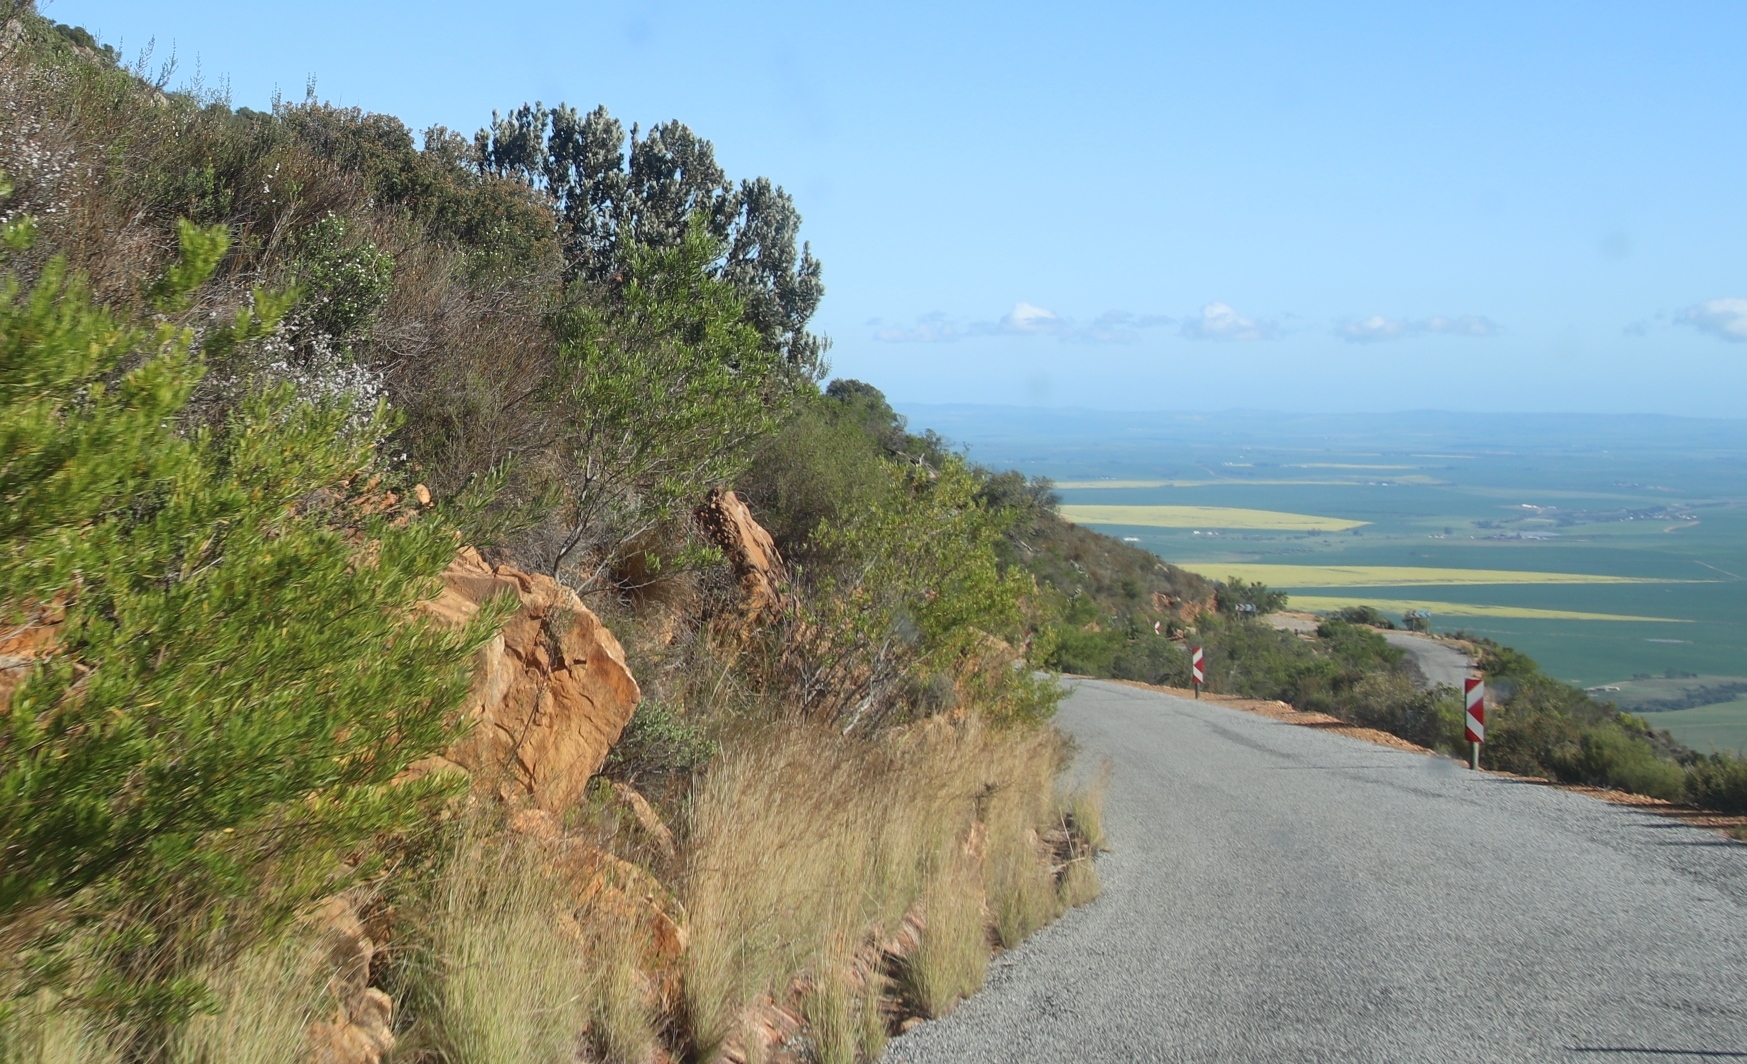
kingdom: Plantae
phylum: Tracheophyta
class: Magnoliopsida
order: Proteales
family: Proteaceae
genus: Protea
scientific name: Protea laurifolia
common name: Grey-leaf sugarbsh
